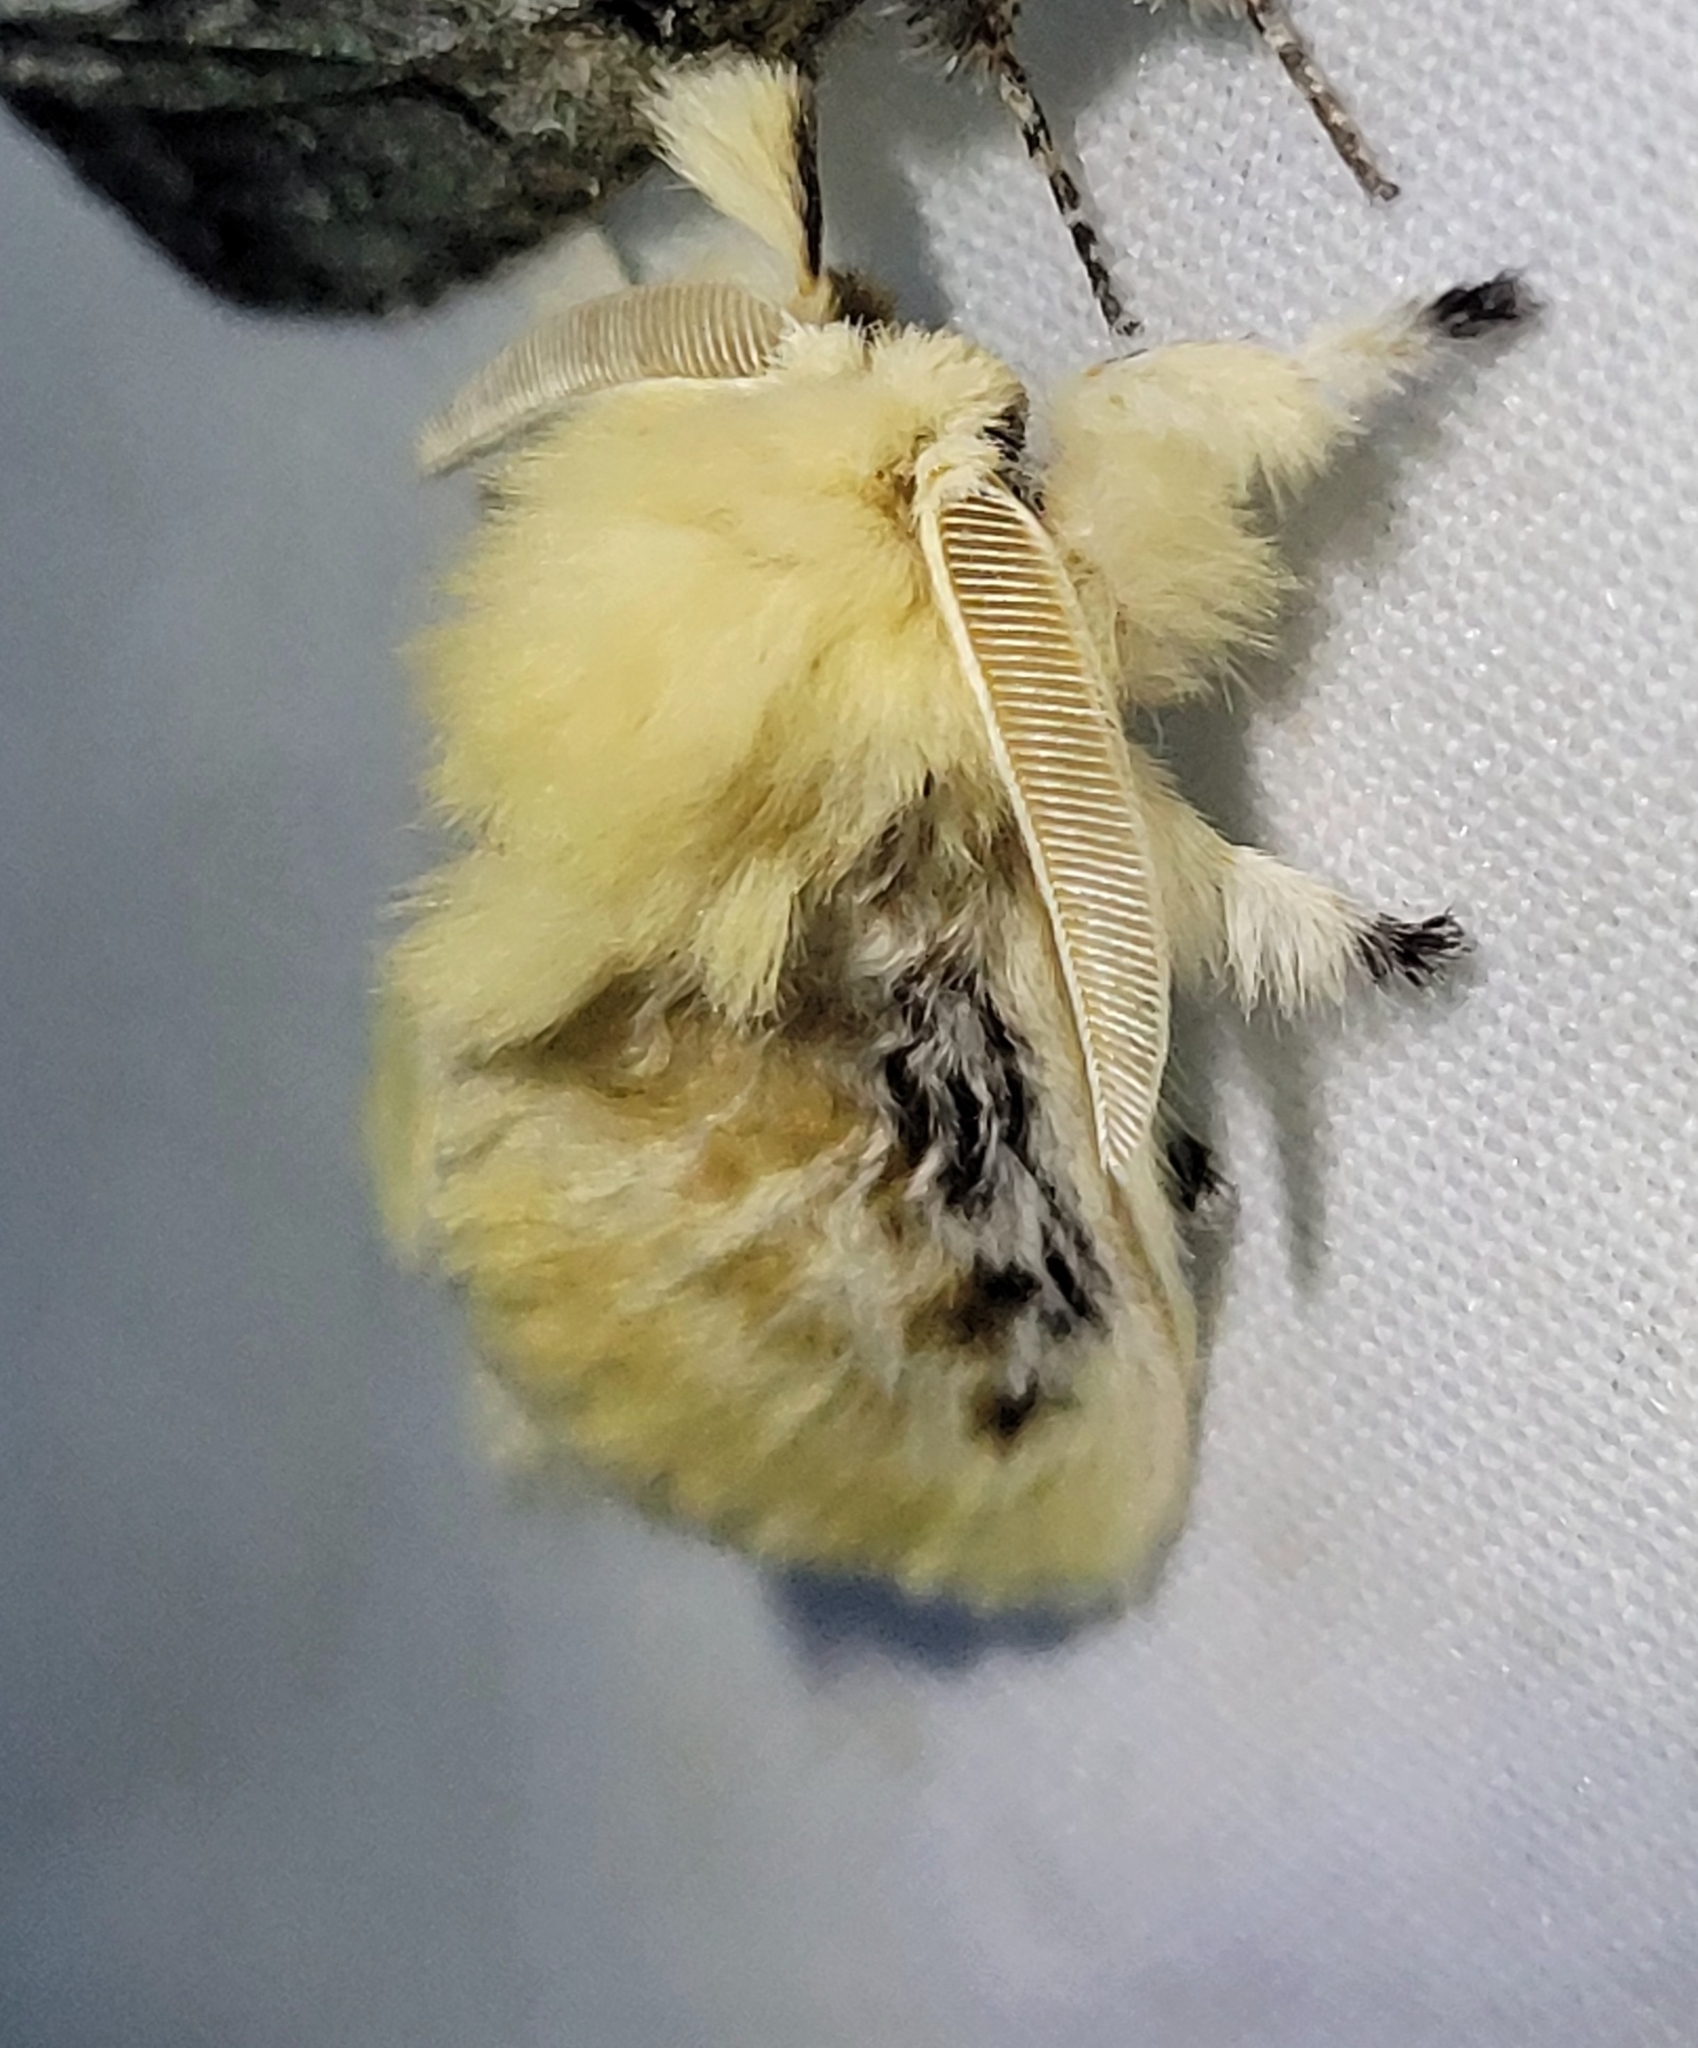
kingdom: Animalia
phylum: Arthropoda
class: Insecta
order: Lepidoptera
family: Megalopygidae
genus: Megalopyge
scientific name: Megalopyge crispata
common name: Black-waved flannel moth
